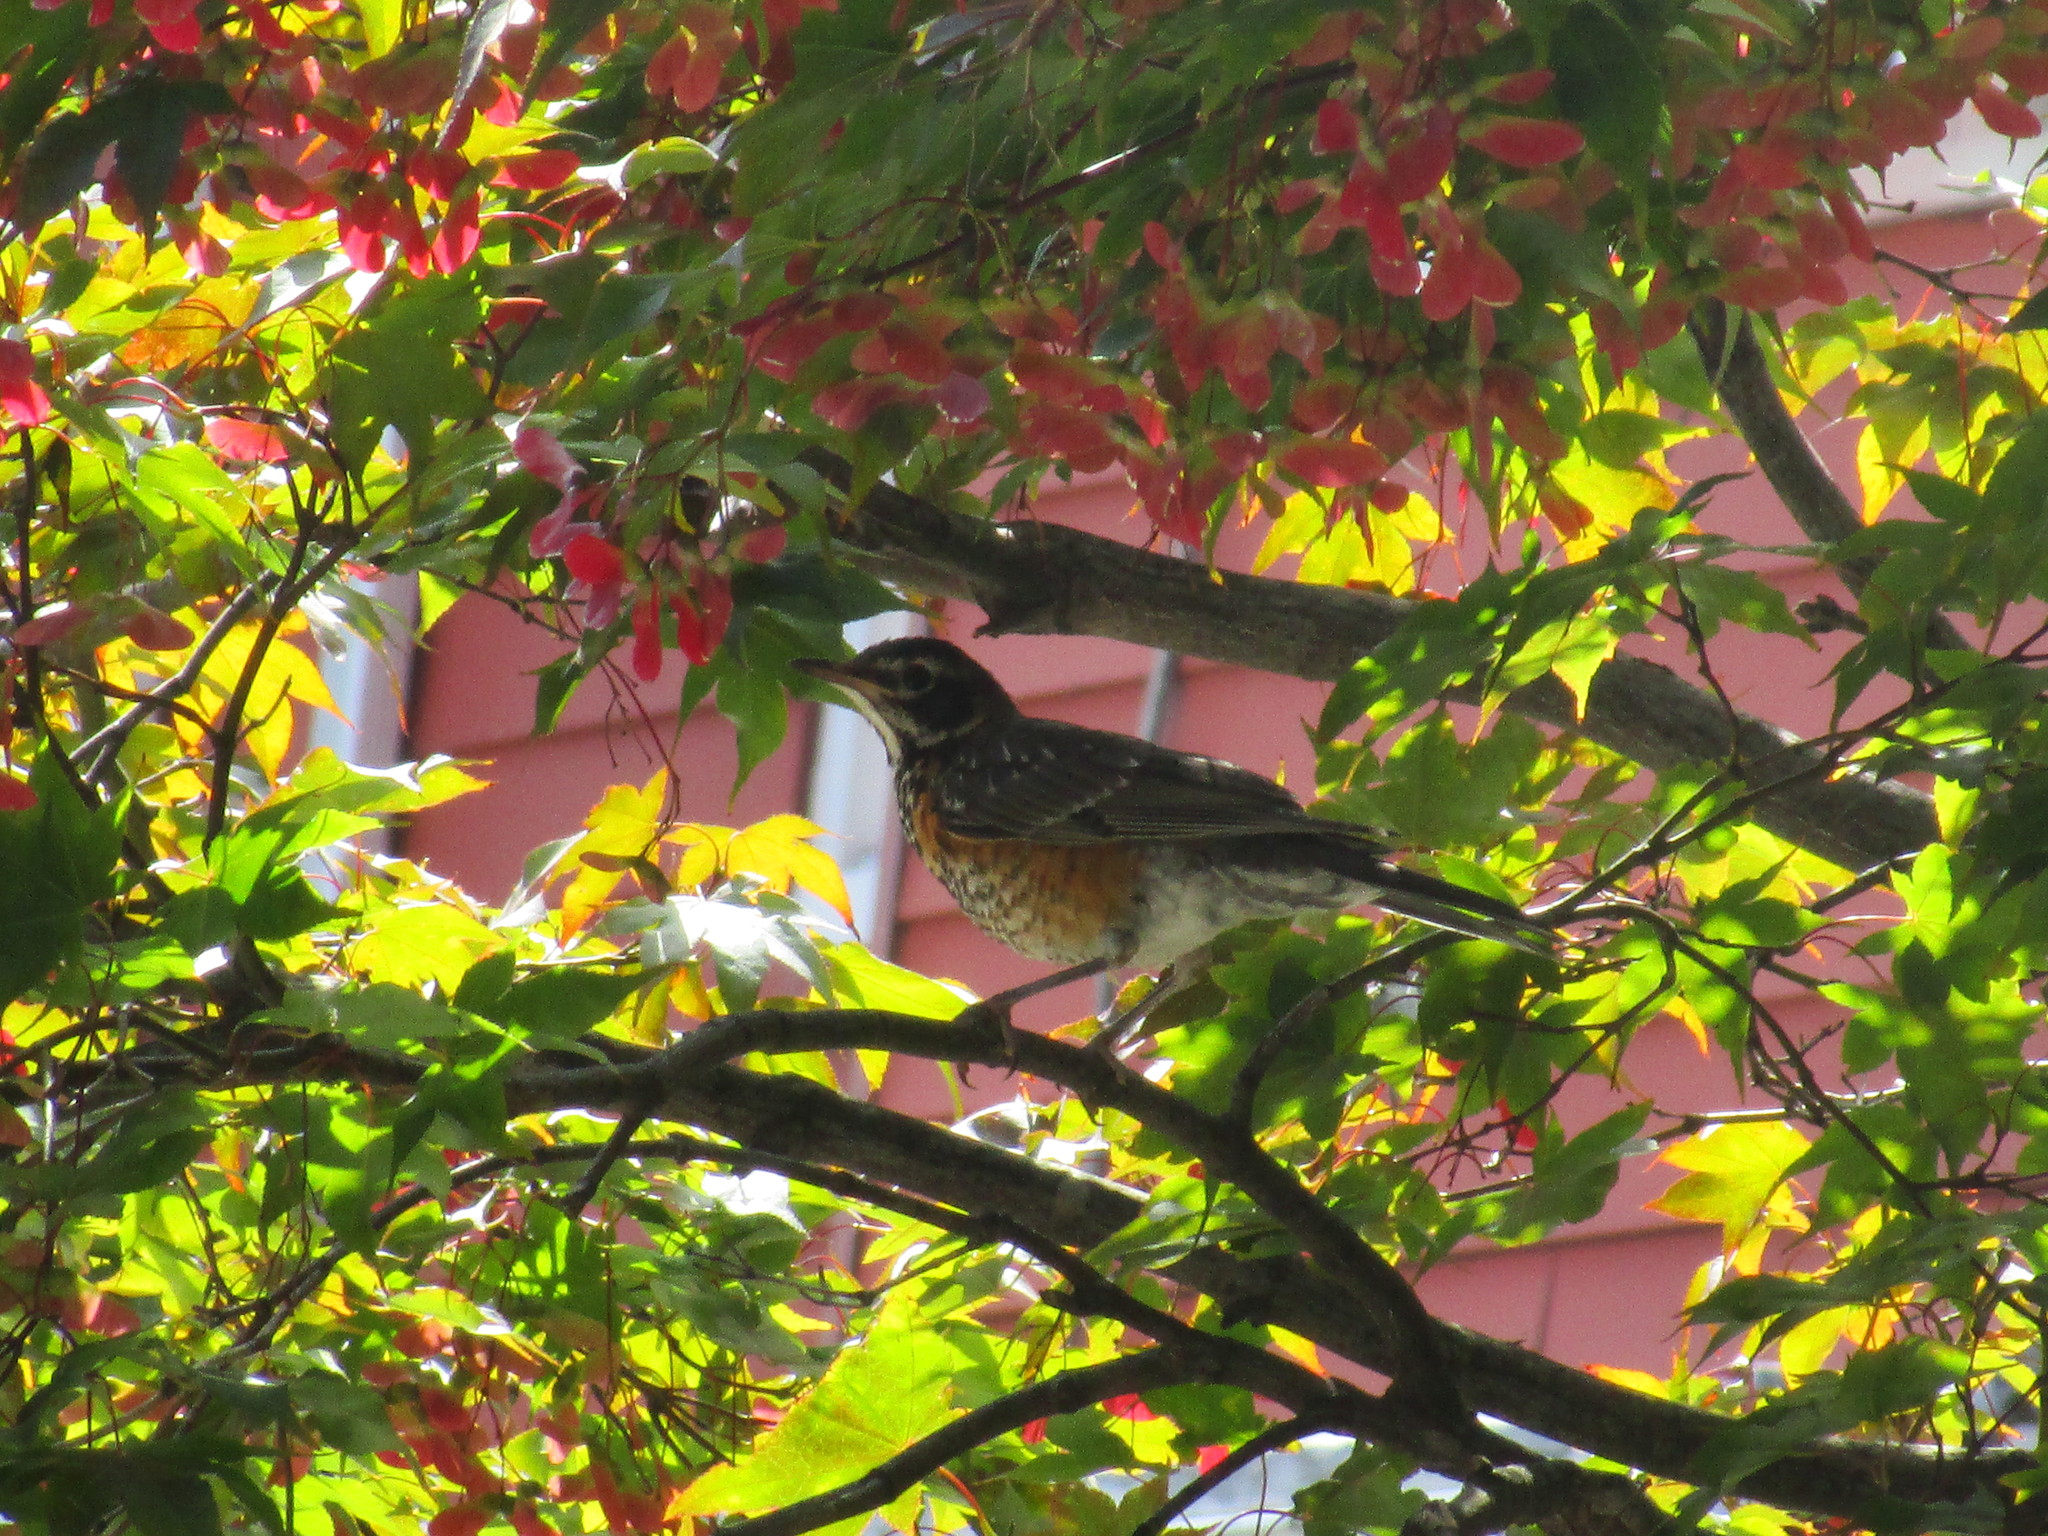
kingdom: Animalia
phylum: Chordata
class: Aves
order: Passeriformes
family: Turdidae
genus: Turdus
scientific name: Turdus migratorius
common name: American robin
